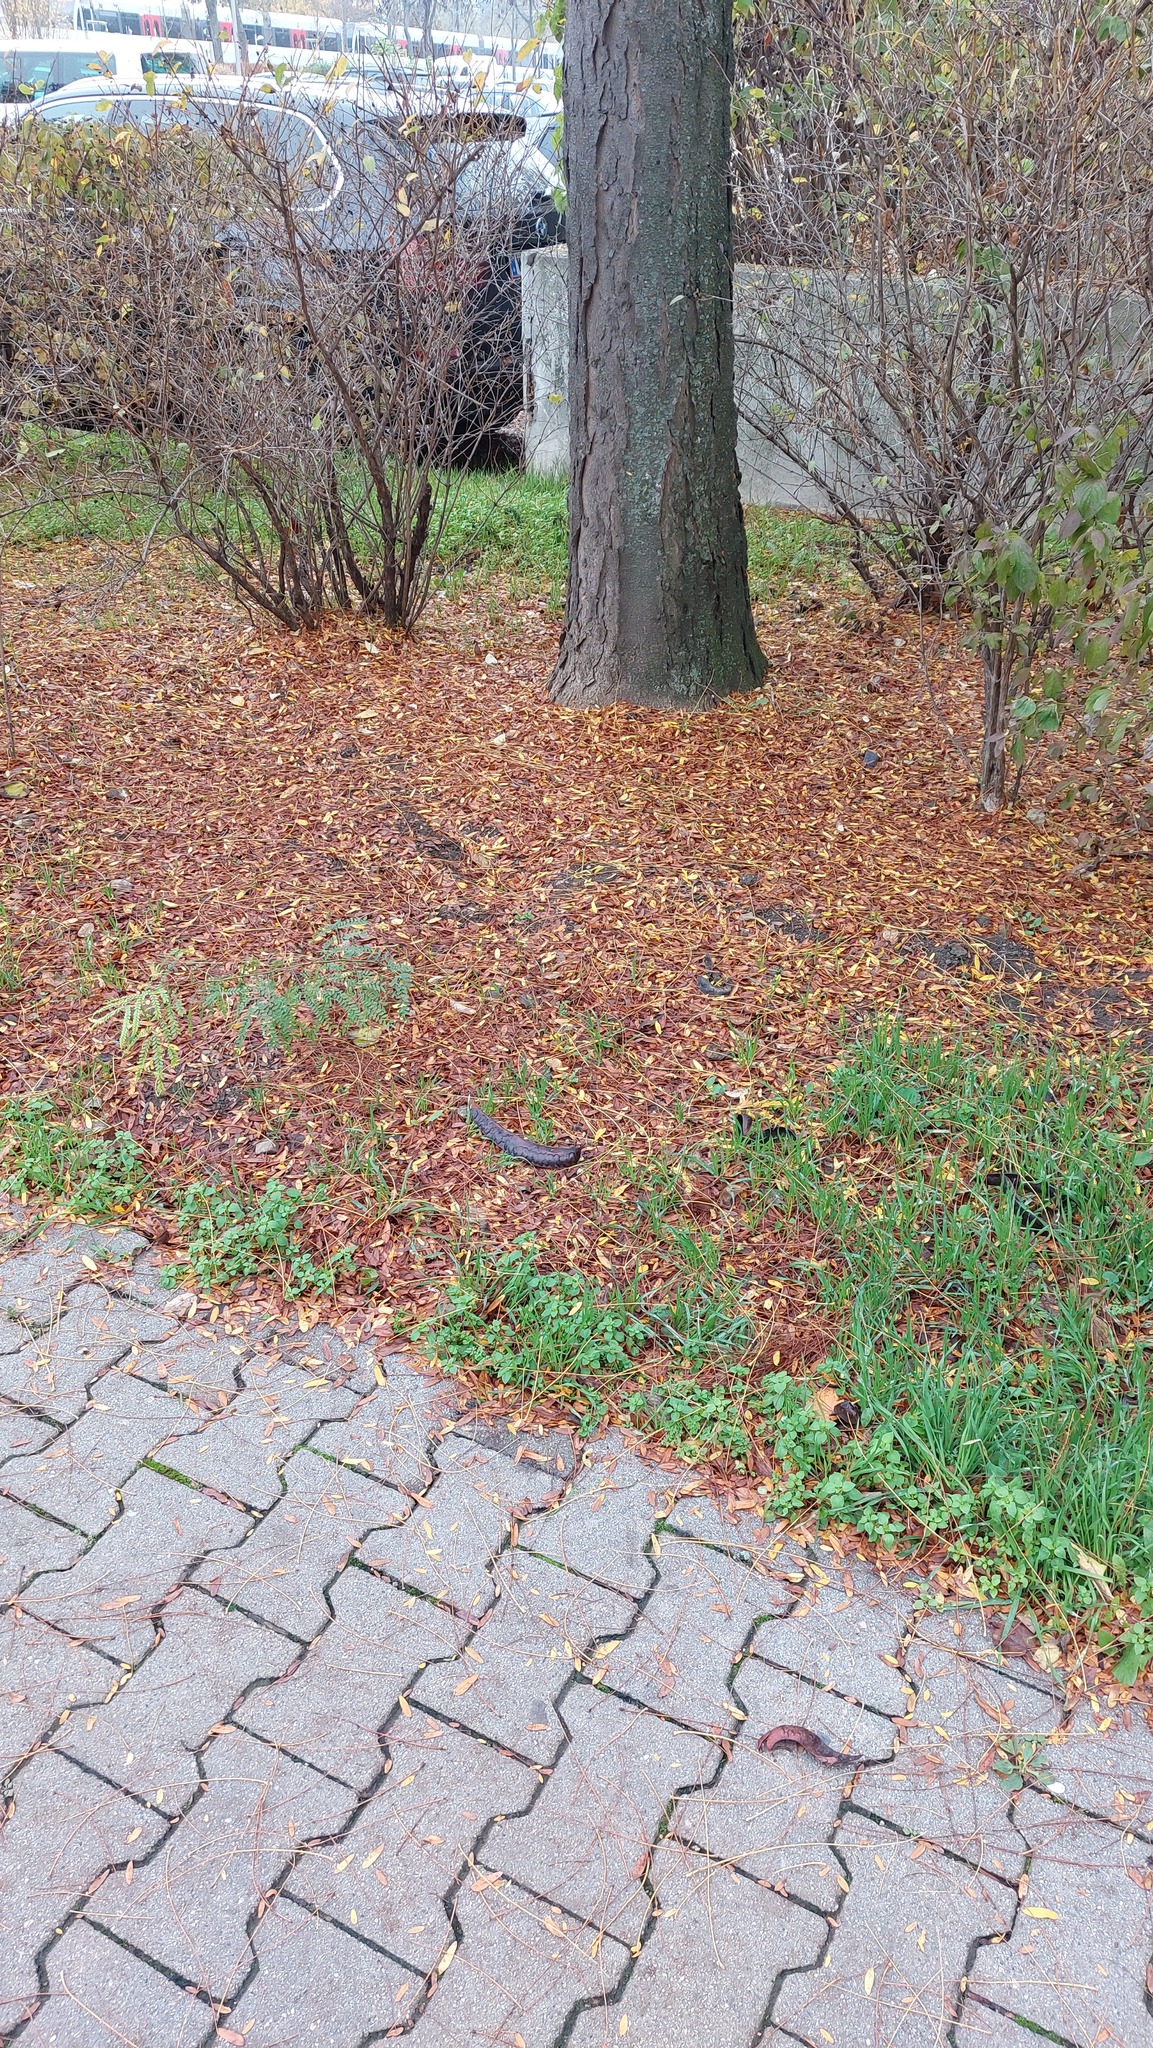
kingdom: Plantae
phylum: Tracheophyta
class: Magnoliopsida
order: Fabales
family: Fabaceae
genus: Gleditsia
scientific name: Gleditsia triacanthos
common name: Common honeylocust
